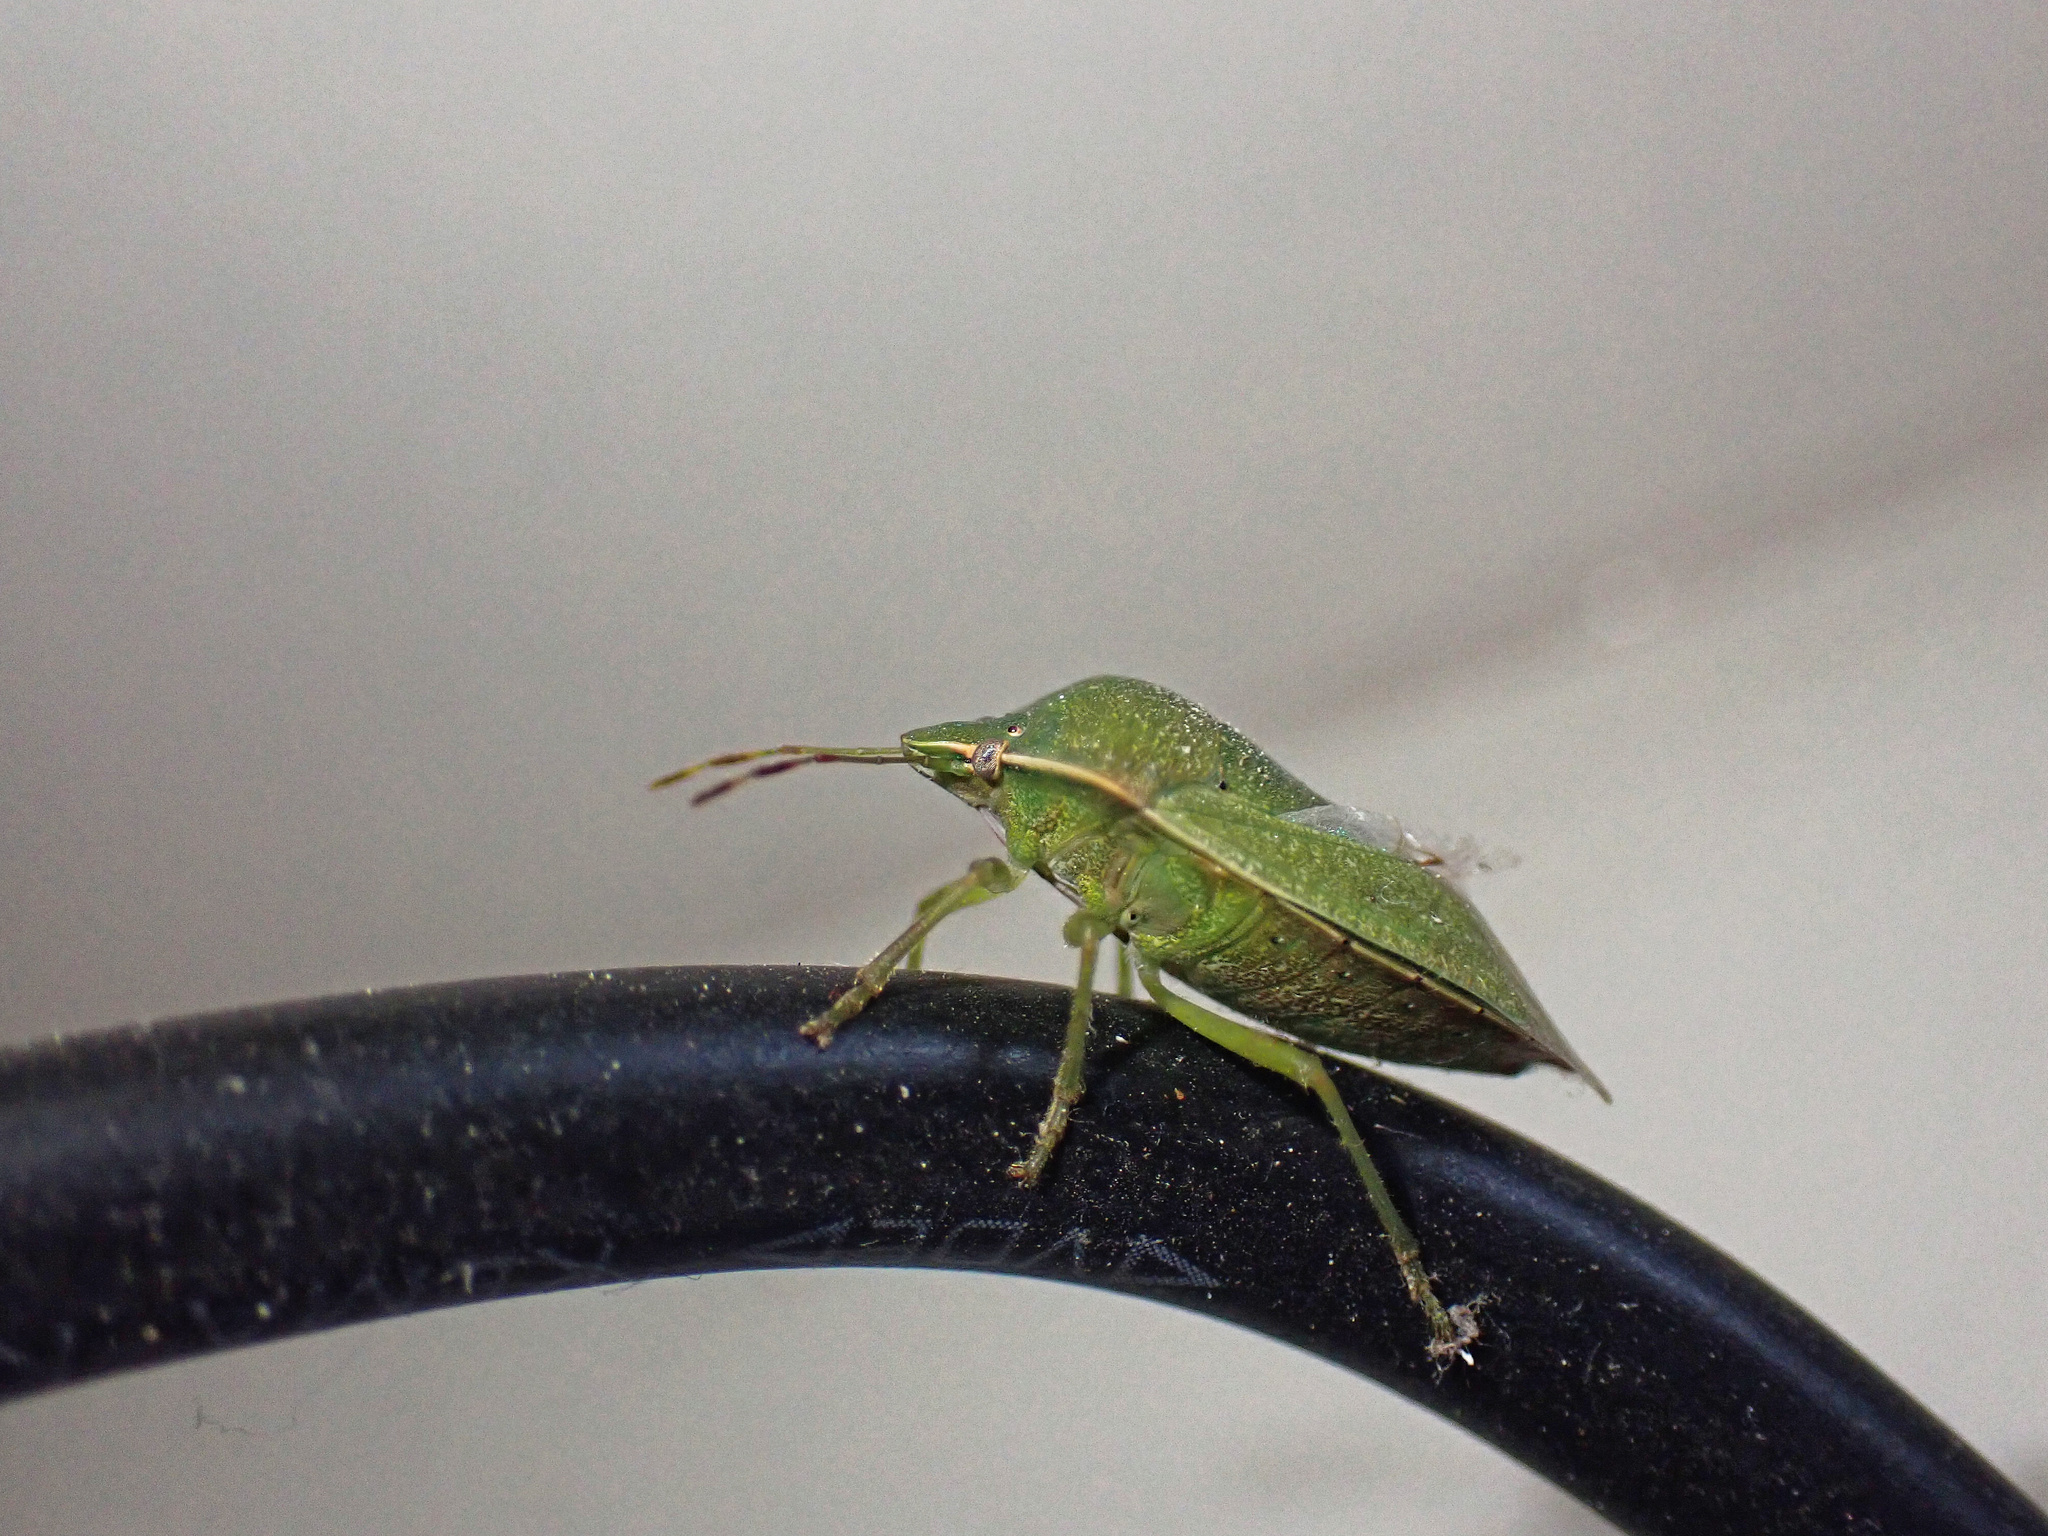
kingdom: Animalia
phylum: Arthropoda
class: Insecta
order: Hemiptera
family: Pentatomidae
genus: Nezara
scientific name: Nezara viridula
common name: Southern green stink bug
